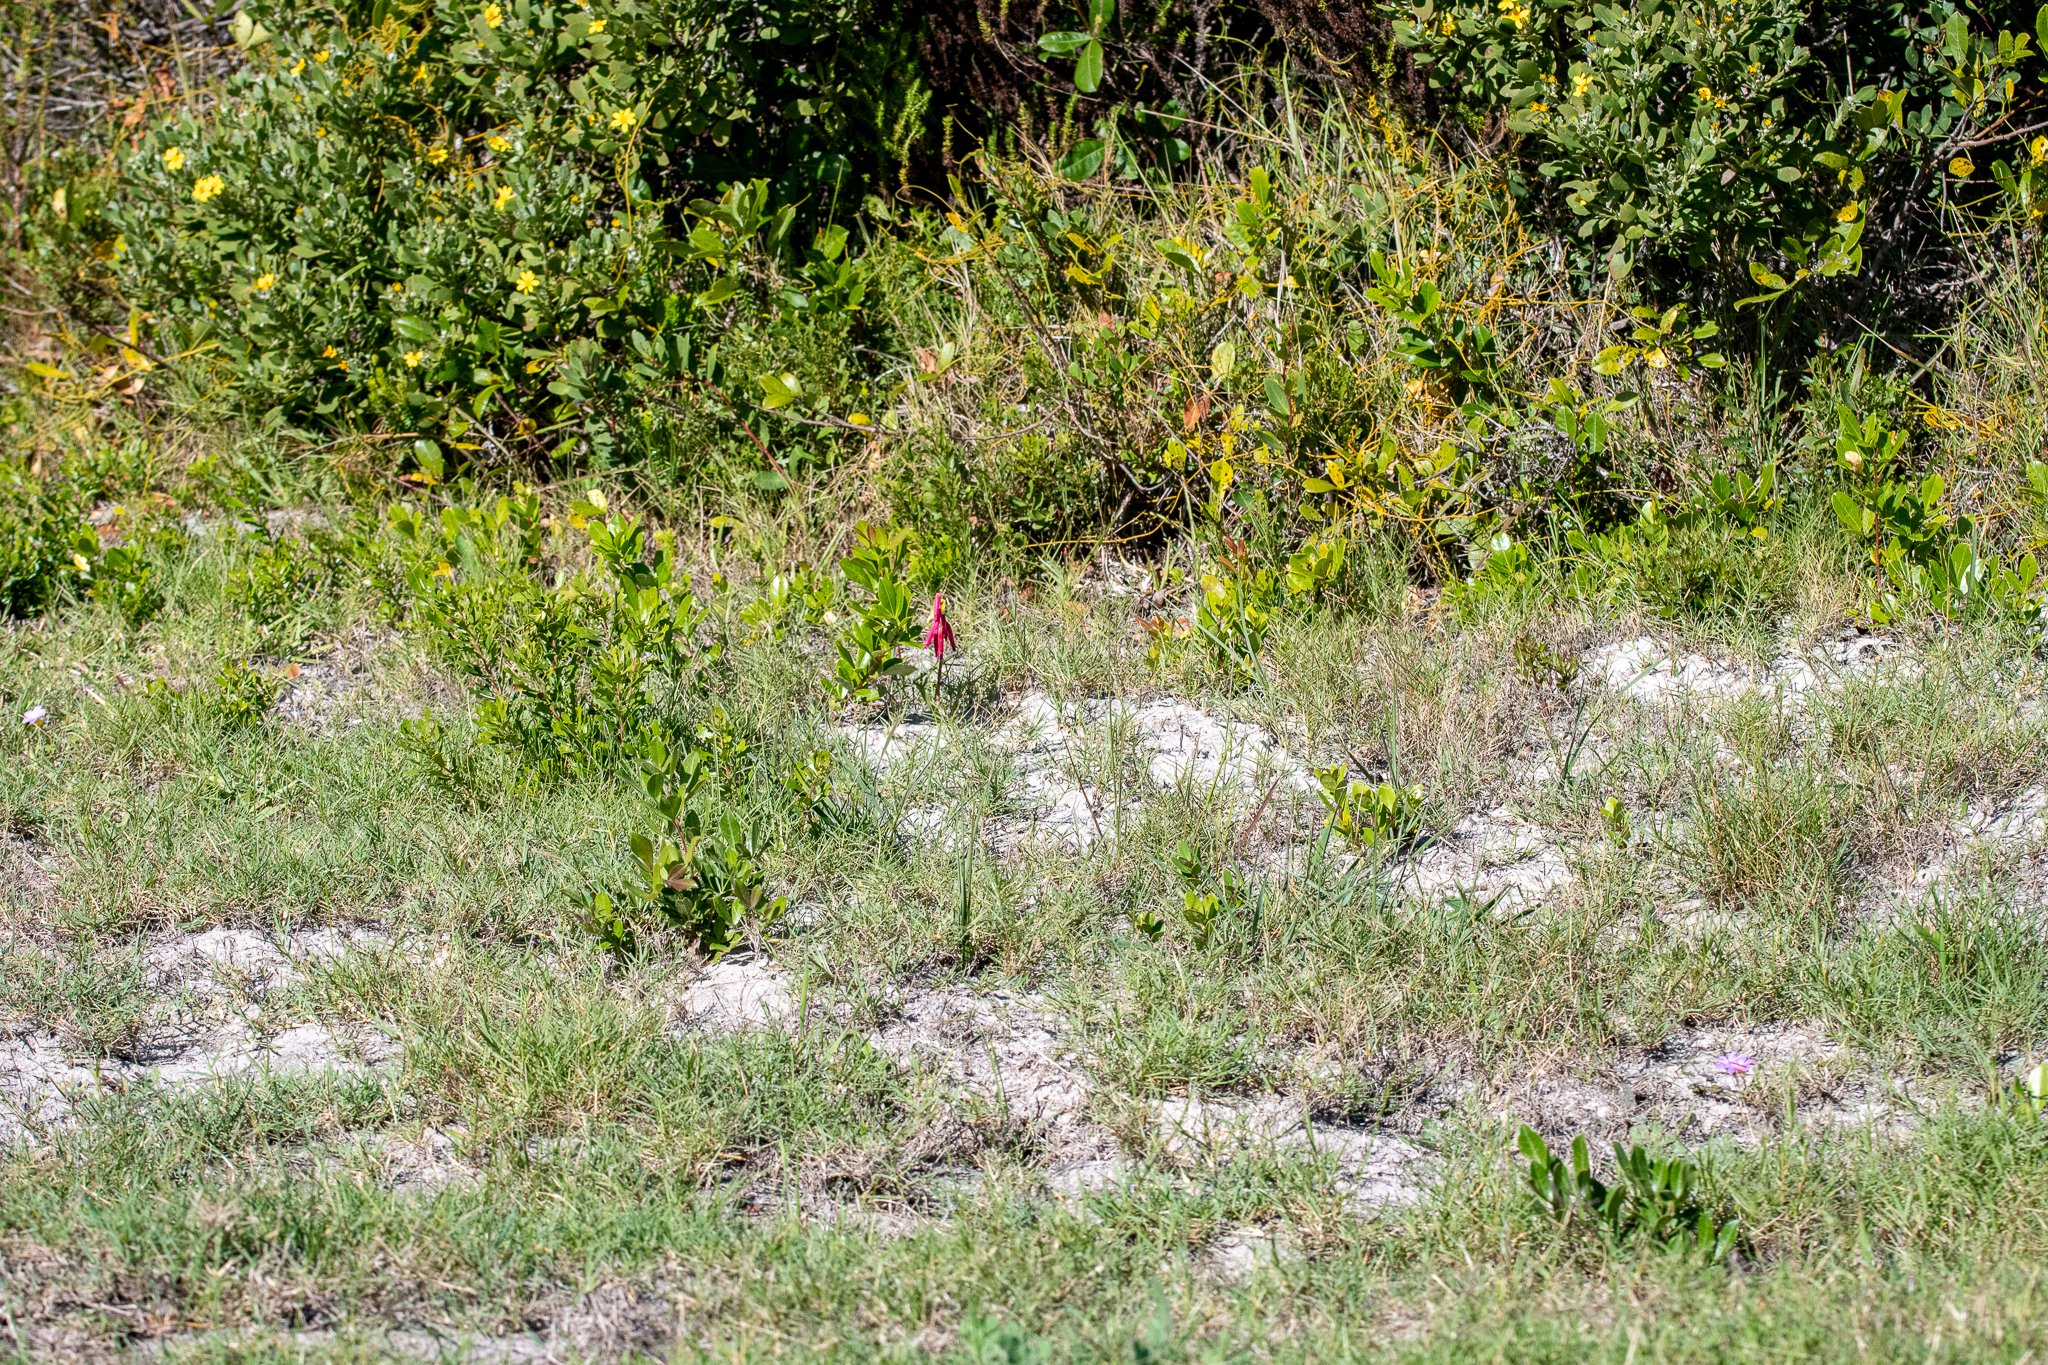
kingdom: Plantae
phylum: Tracheophyta
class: Liliopsida
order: Asparagales
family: Asparagaceae
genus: Lachenalia
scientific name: Lachenalia punctata
